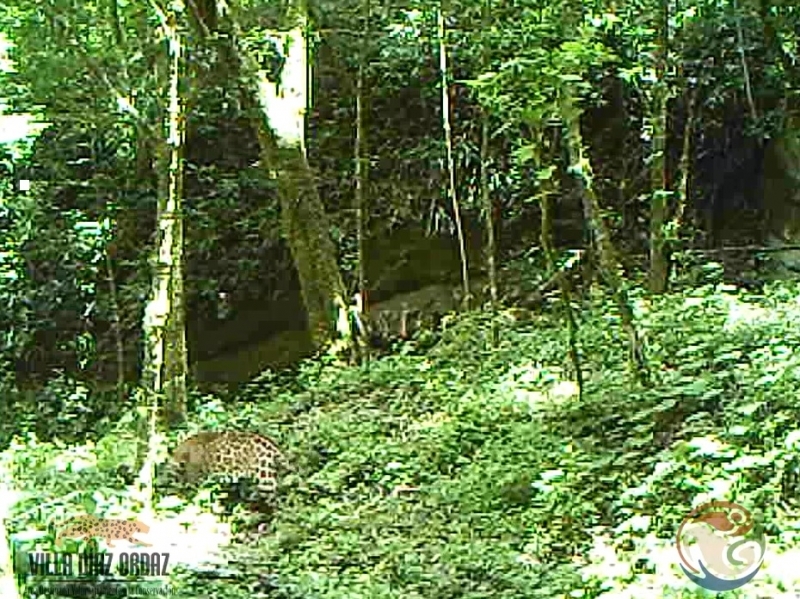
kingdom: Animalia
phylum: Chordata
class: Mammalia
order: Carnivora
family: Felidae
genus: Panthera
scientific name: Panthera onca
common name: Jaguar
